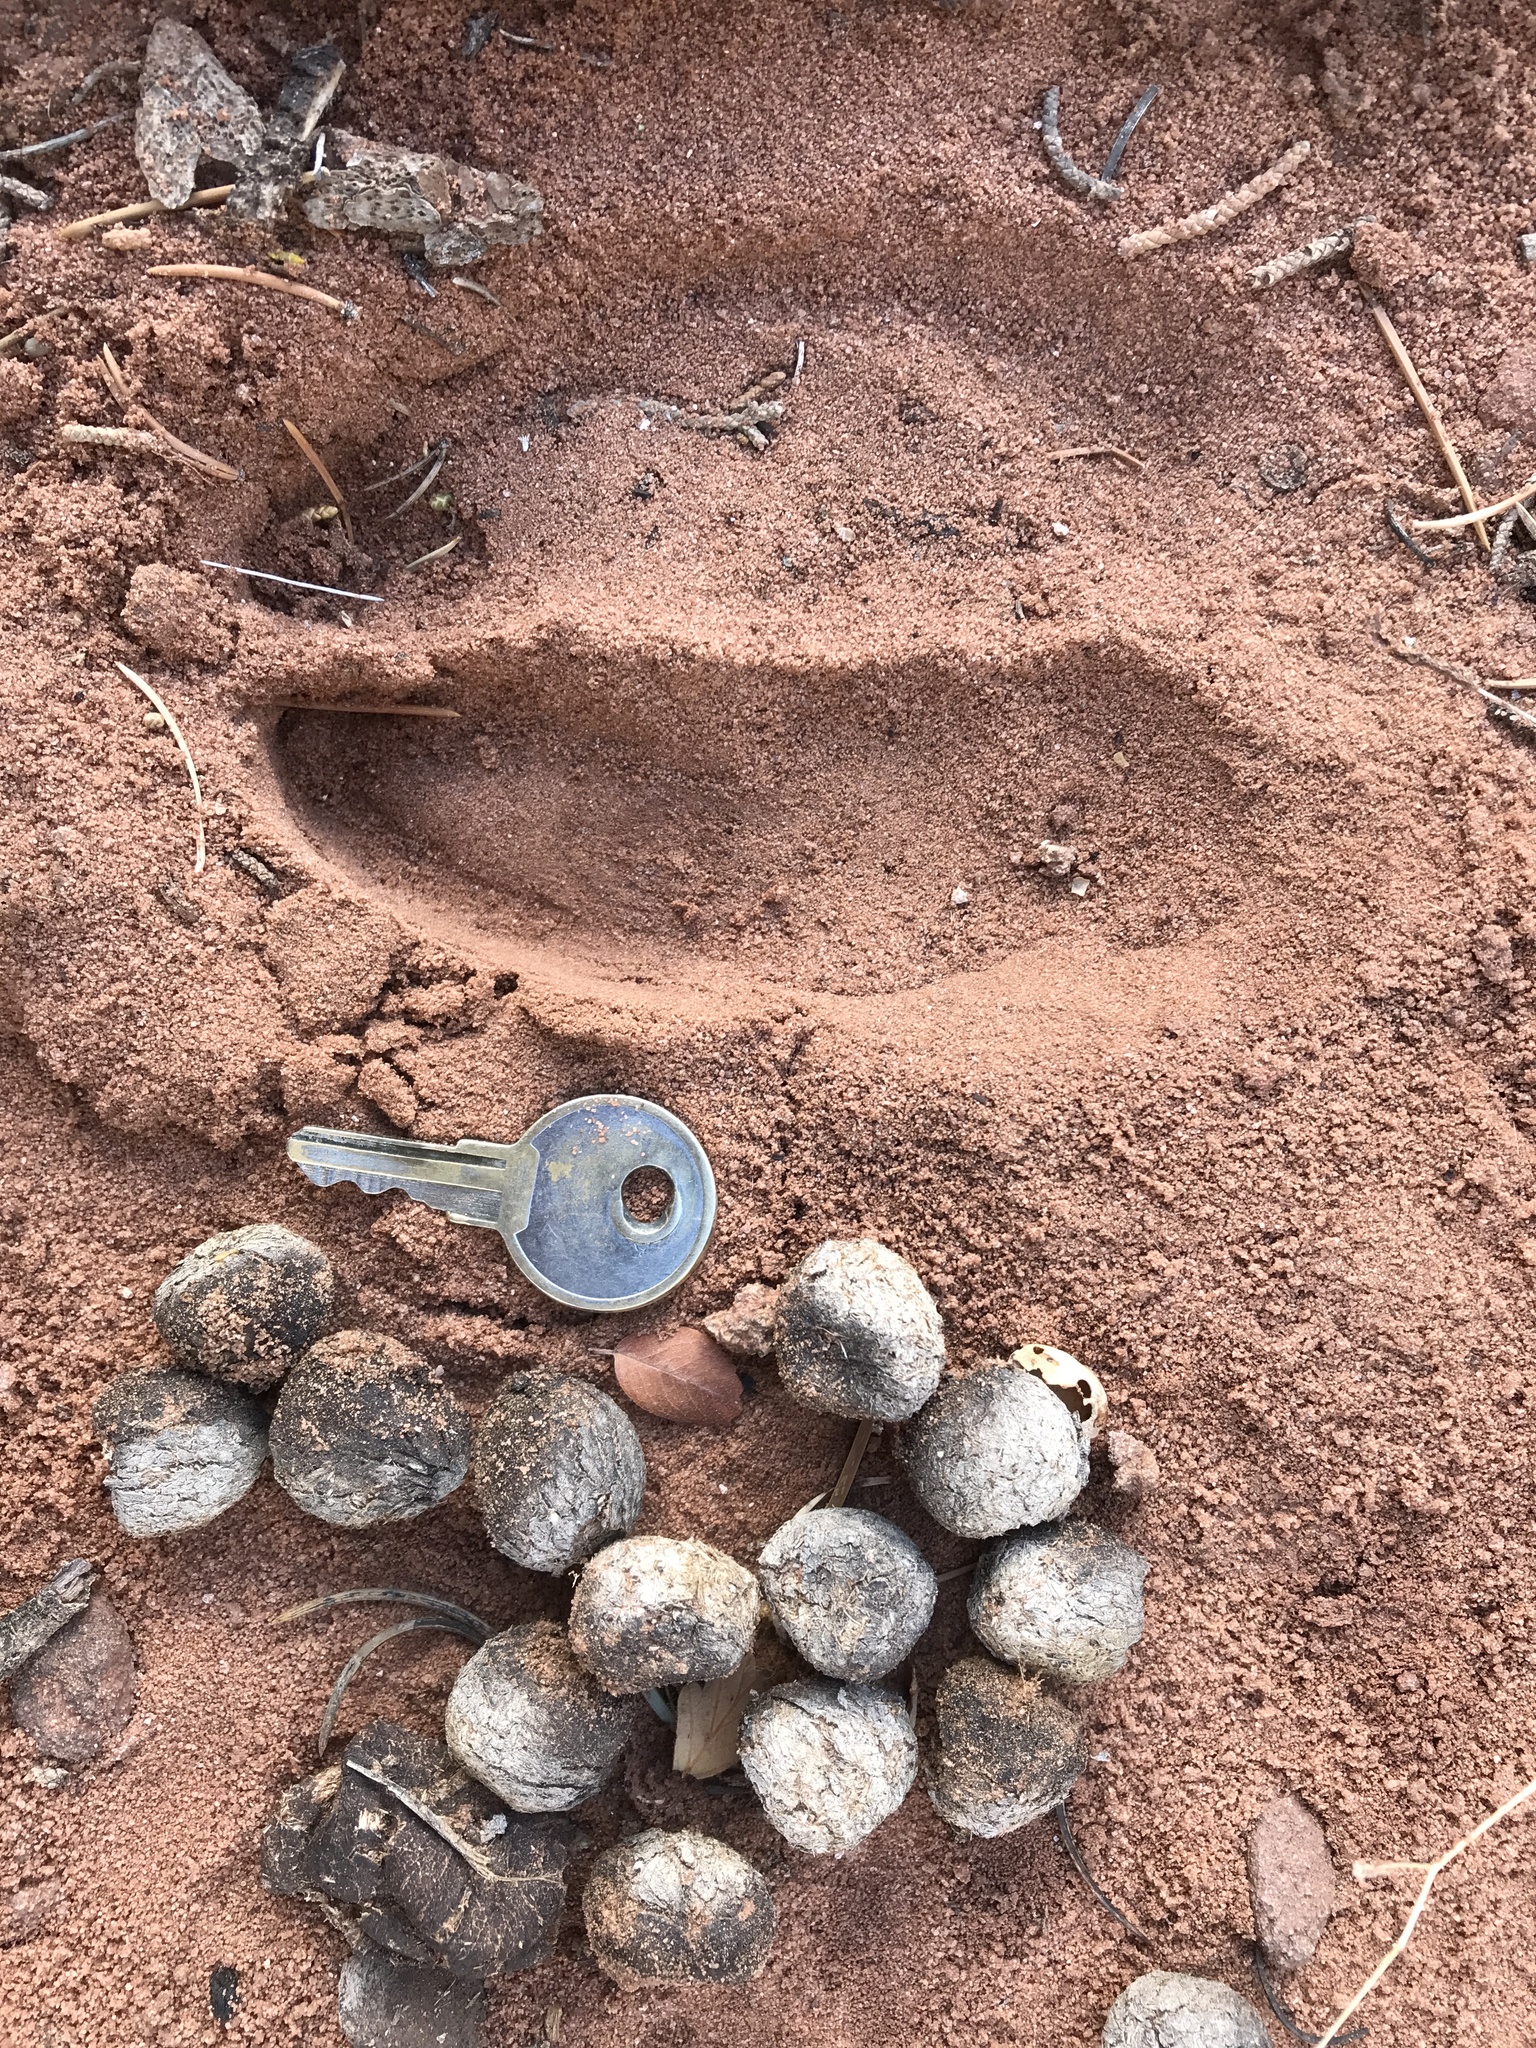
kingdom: Animalia
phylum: Chordata
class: Mammalia
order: Artiodactyla
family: Cervidae
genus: Cervus
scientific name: Cervus elaphus
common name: Red deer
